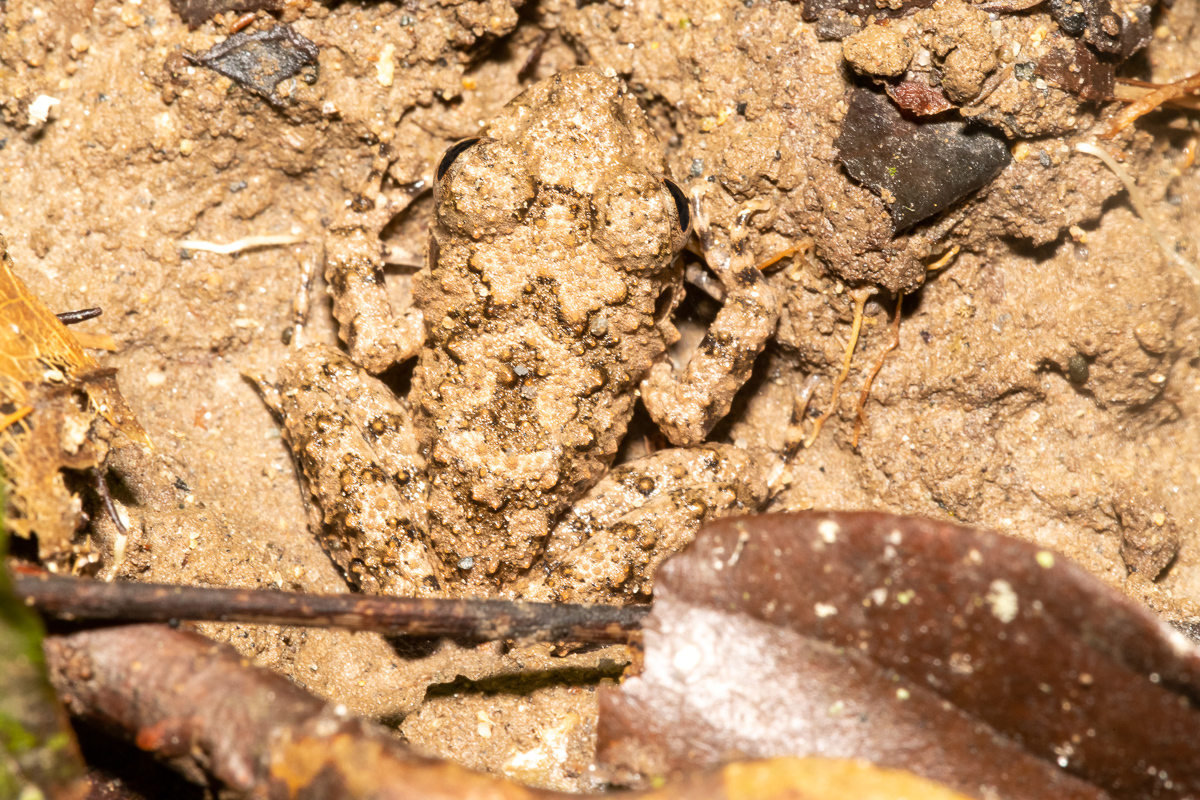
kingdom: Animalia
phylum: Chordata
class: Amphibia
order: Anura
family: Craugastoridae
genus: Oreobates
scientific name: Oreobates quixensis
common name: Common big-headed frog
